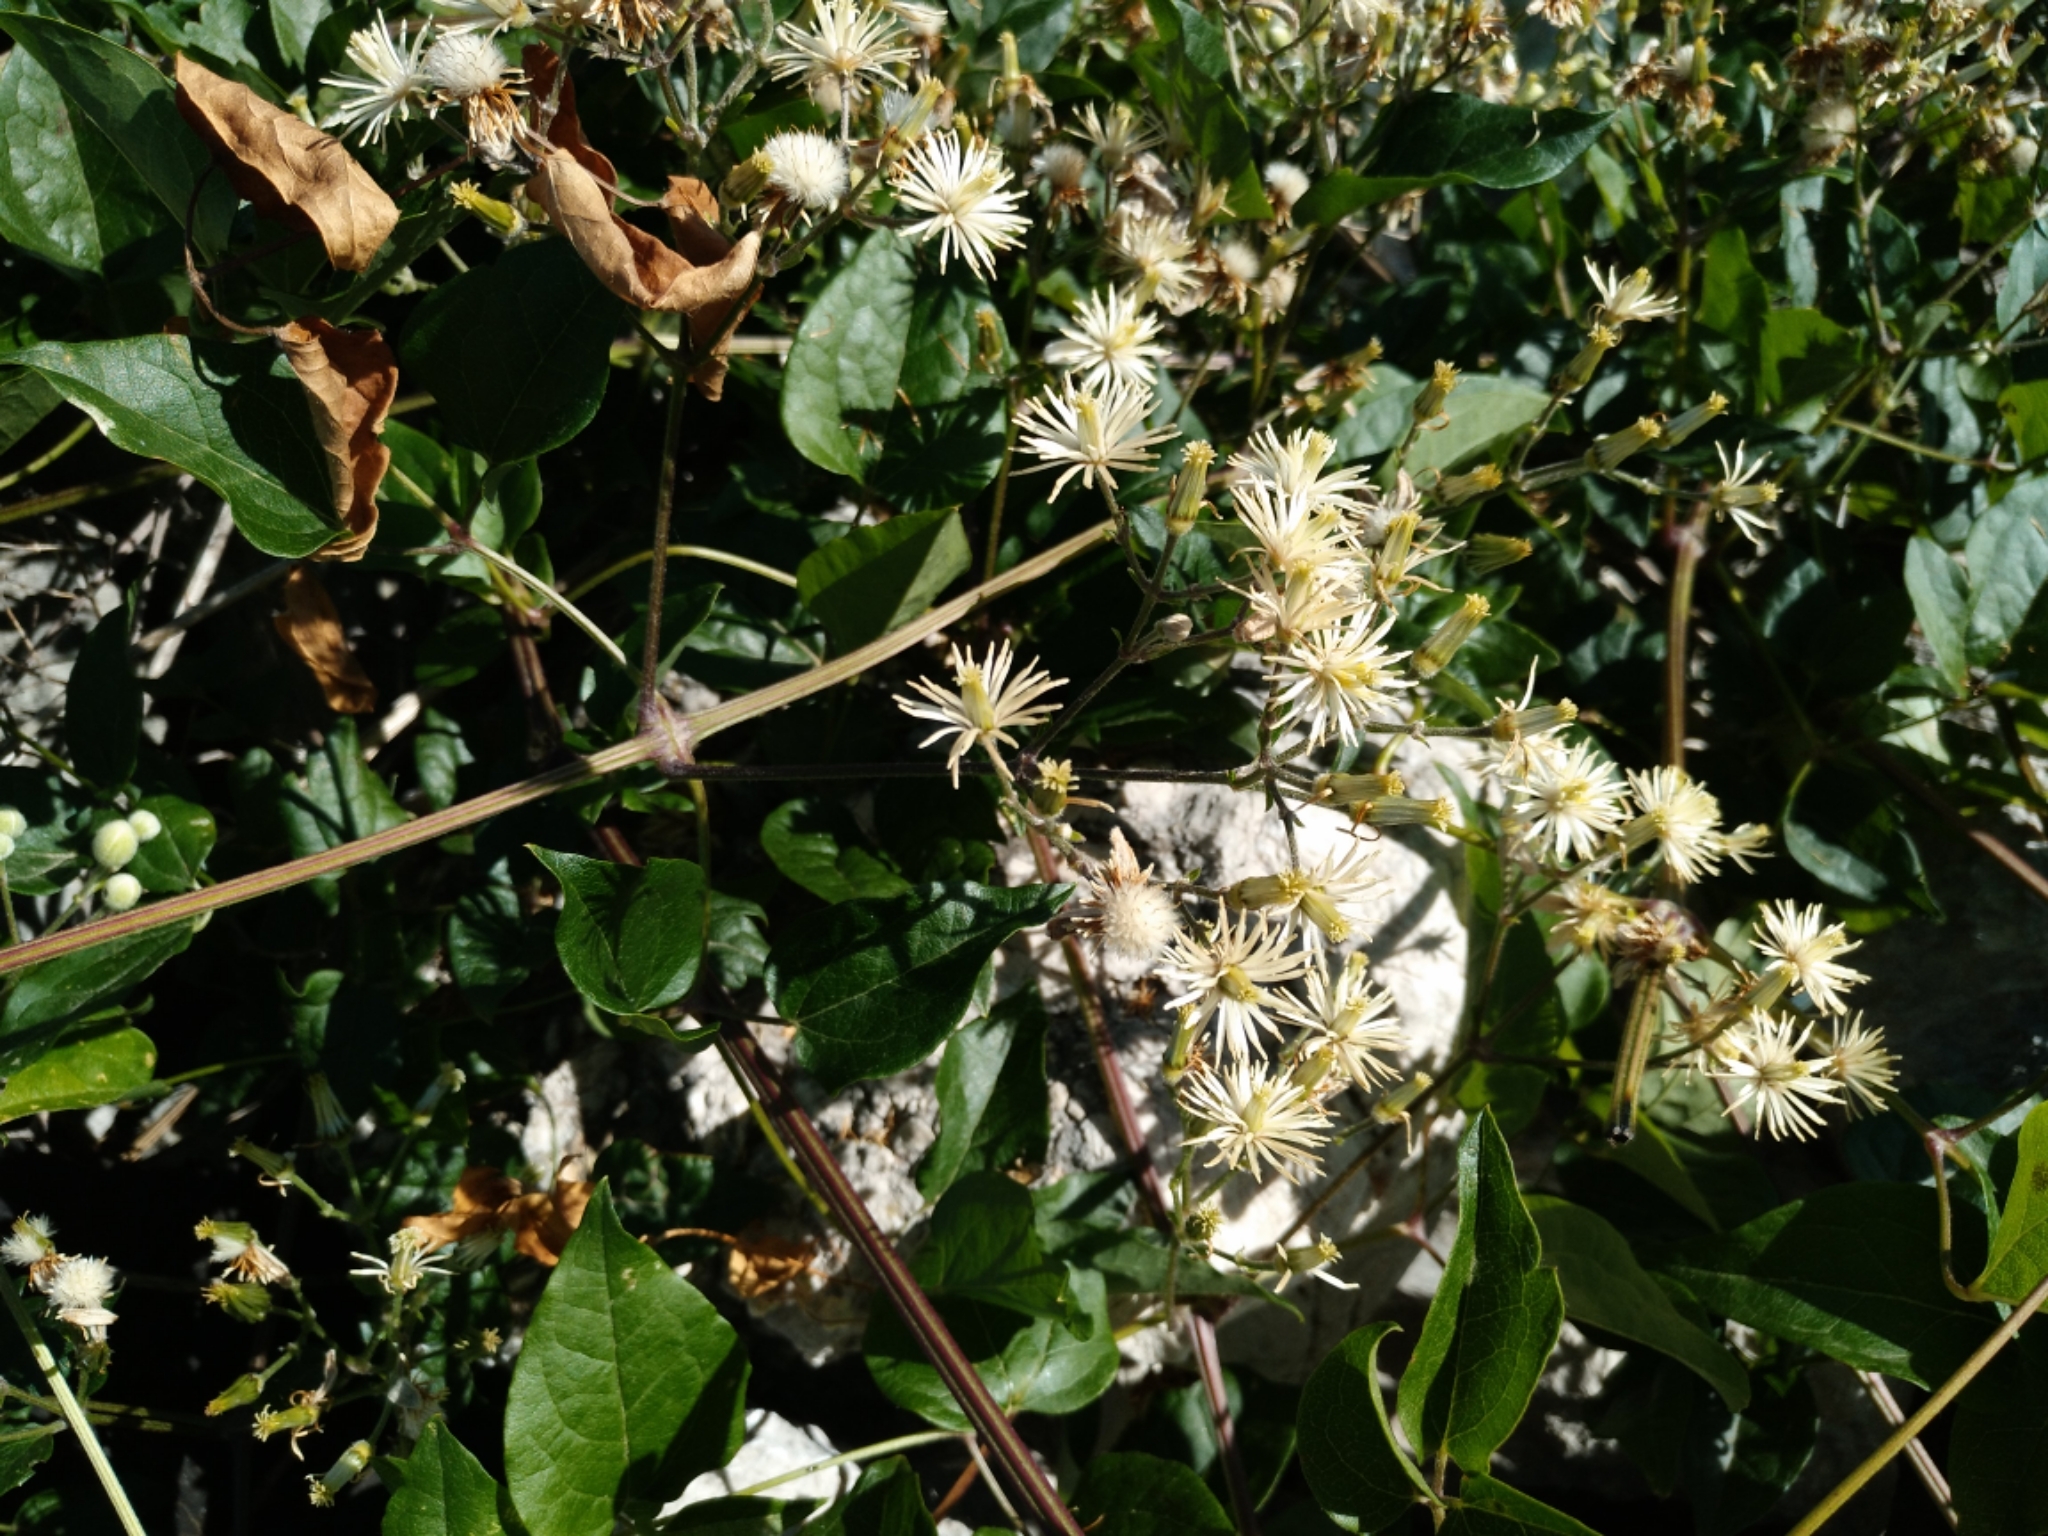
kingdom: Plantae
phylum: Tracheophyta
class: Magnoliopsida
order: Ranunculales
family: Ranunculaceae
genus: Clematis
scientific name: Clematis vitalba
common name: Evergreen clematis
